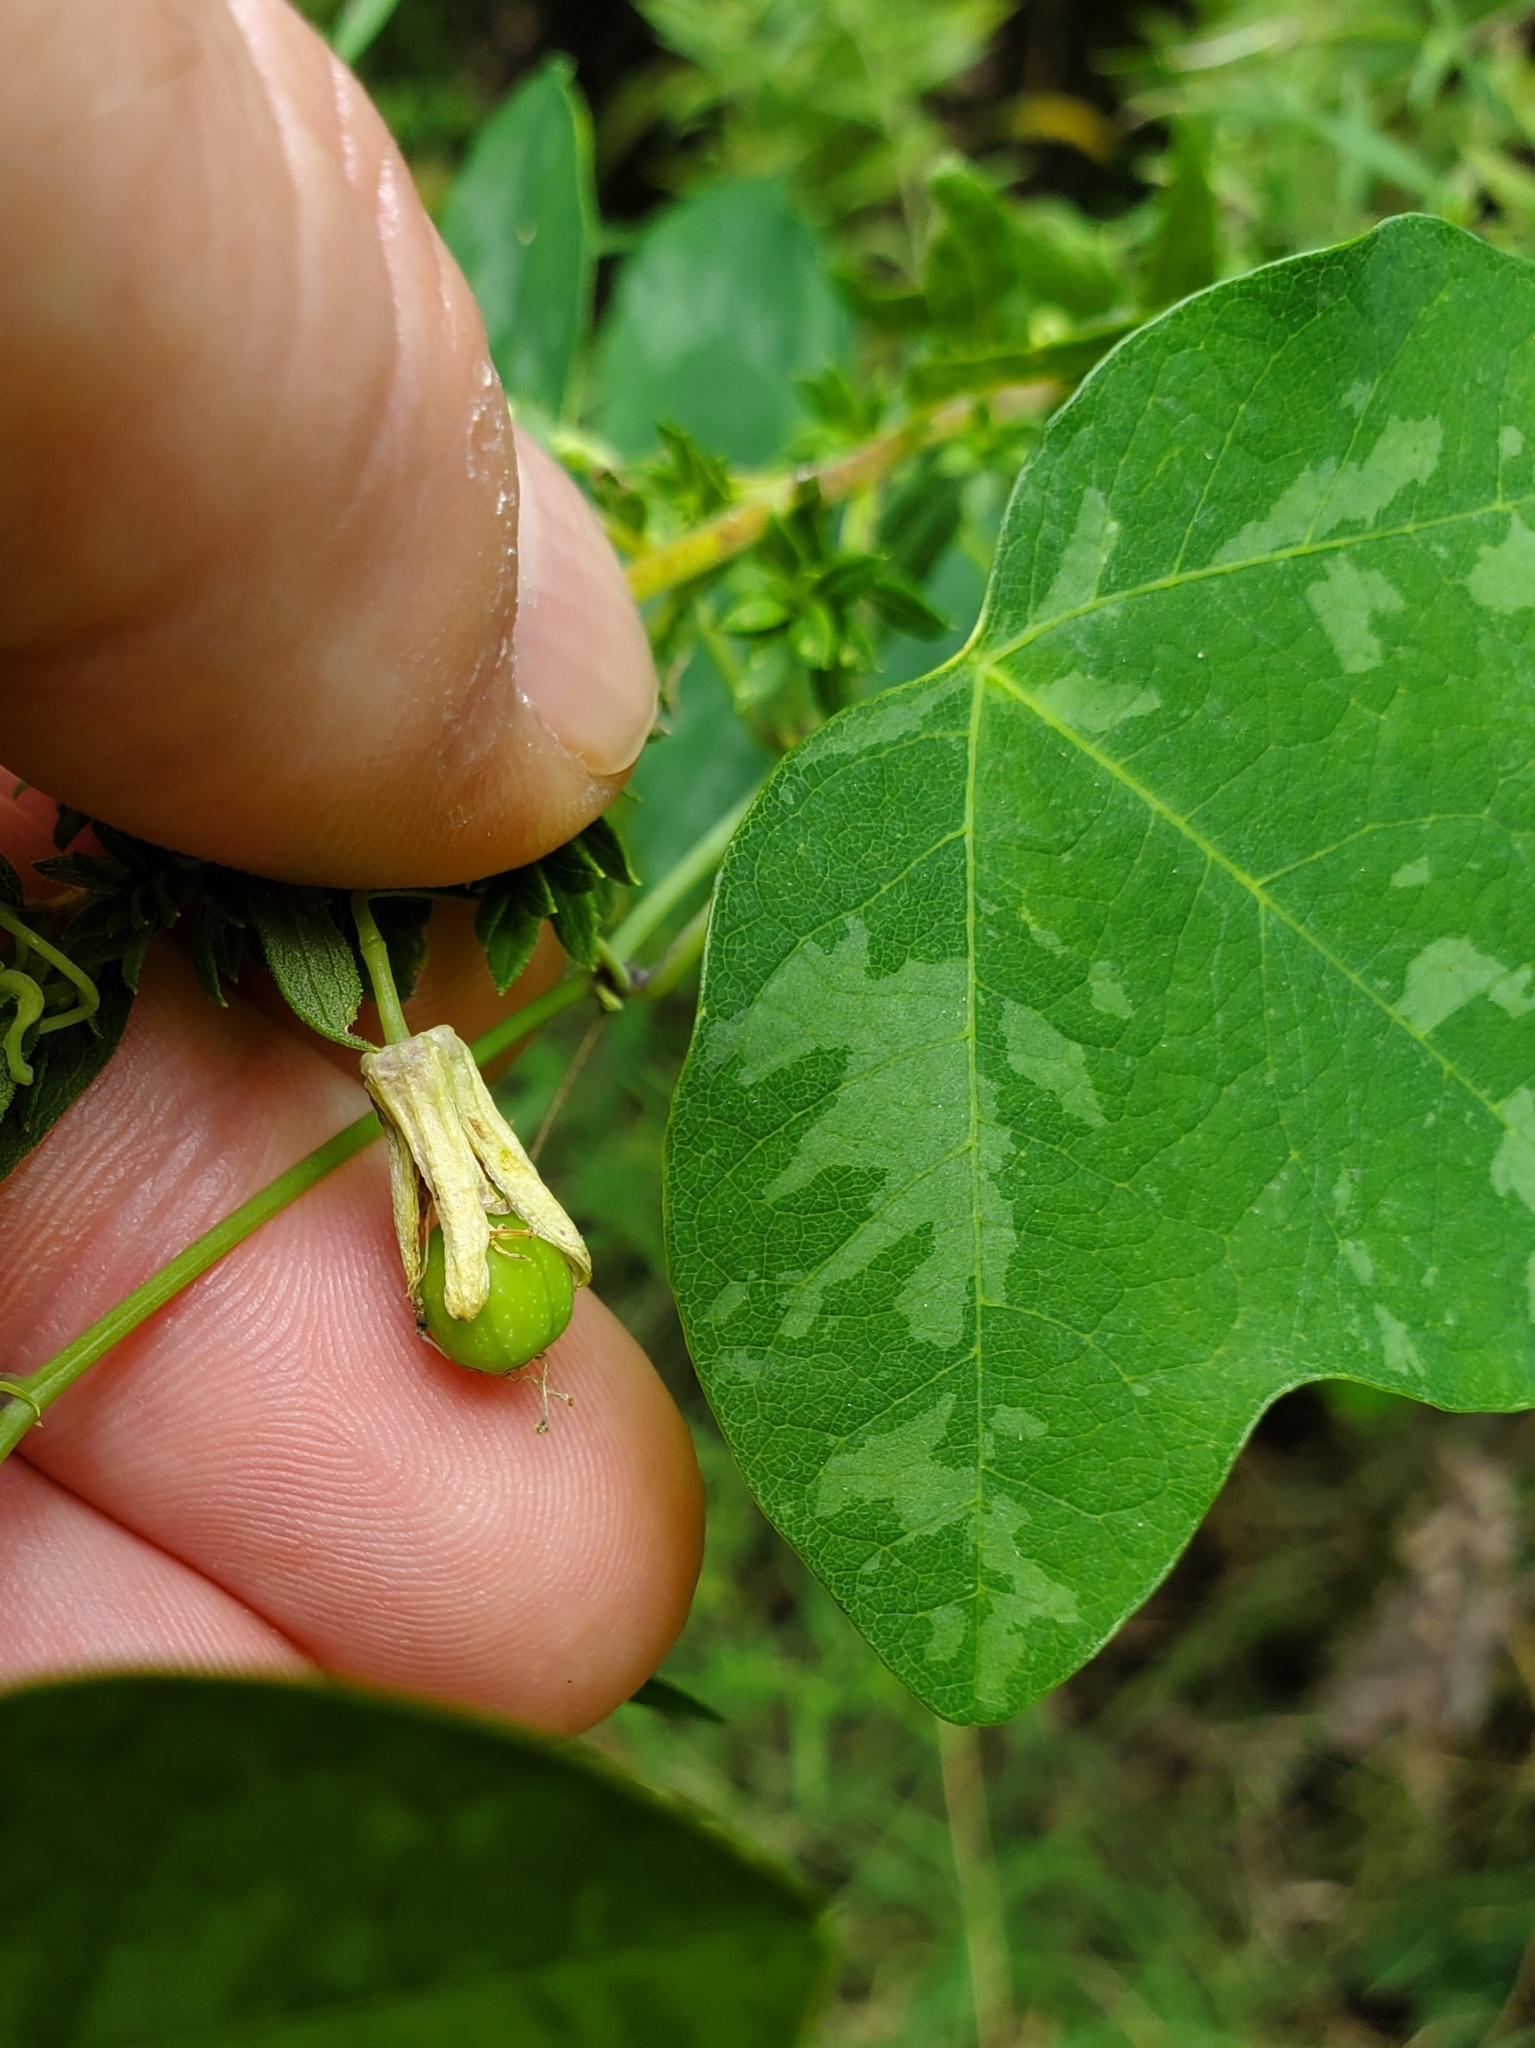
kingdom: Plantae
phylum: Tracheophyta
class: Magnoliopsida
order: Malpighiales
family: Passifloraceae
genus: Passiflora
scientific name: Passiflora lutea
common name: Yellow passionflower
